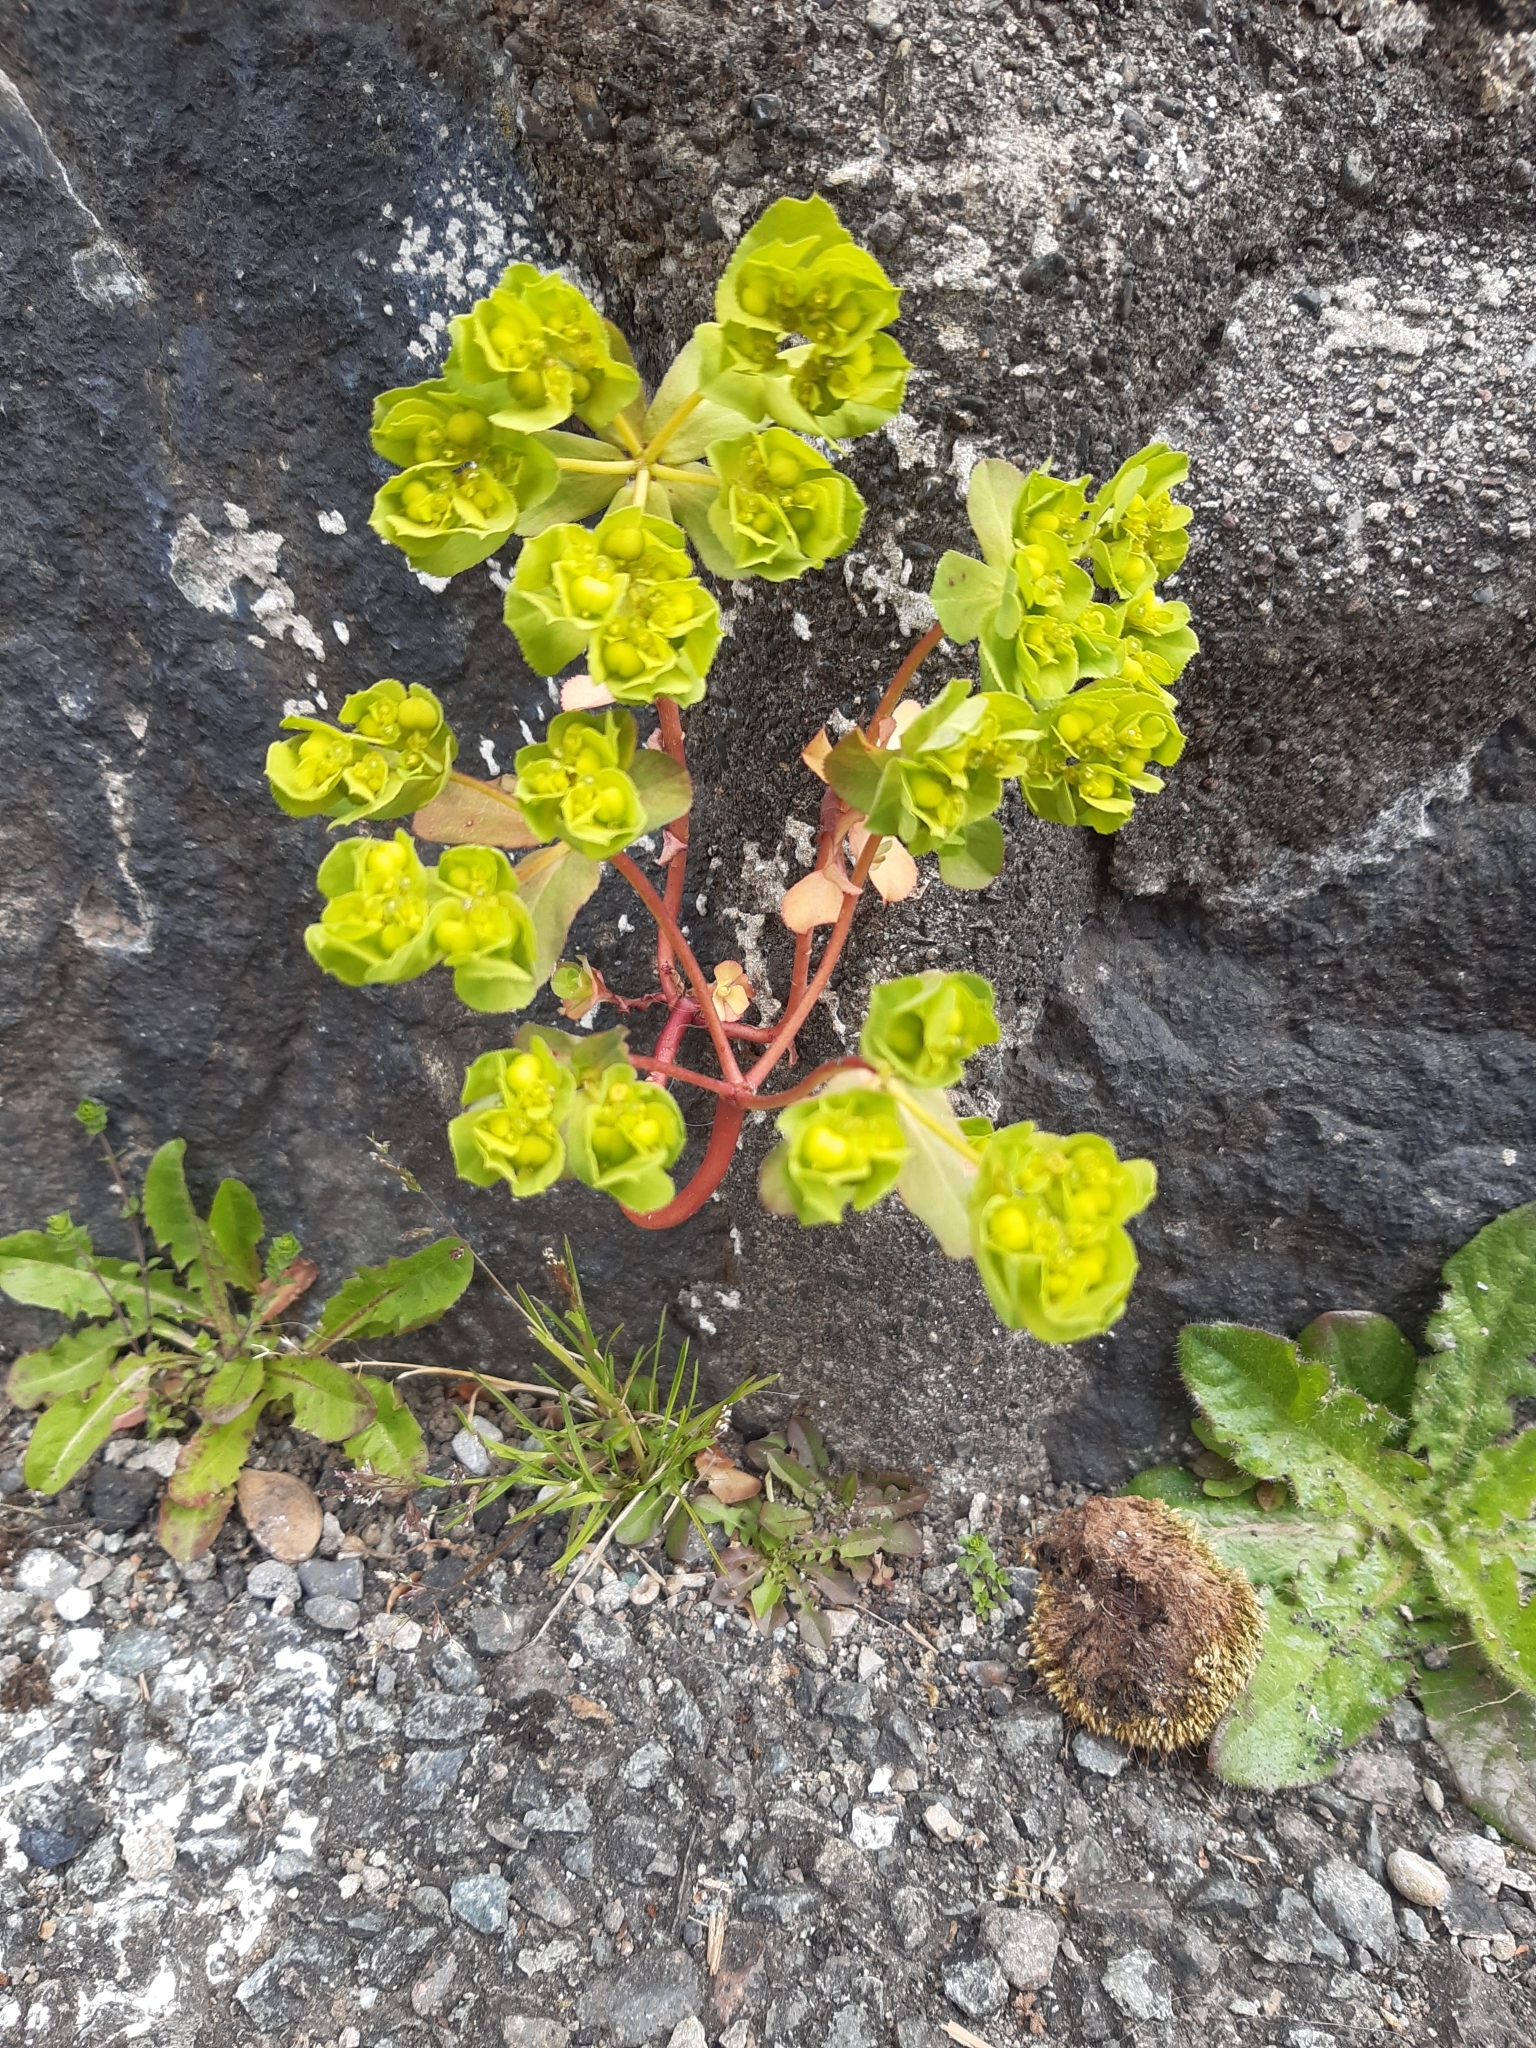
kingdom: Plantae
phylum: Tracheophyta
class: Magnoliopsida
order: Malpighiales
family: Euphorbiaceae
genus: Euphorbia
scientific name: Euphorbia helioscopia
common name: Sun spurge
